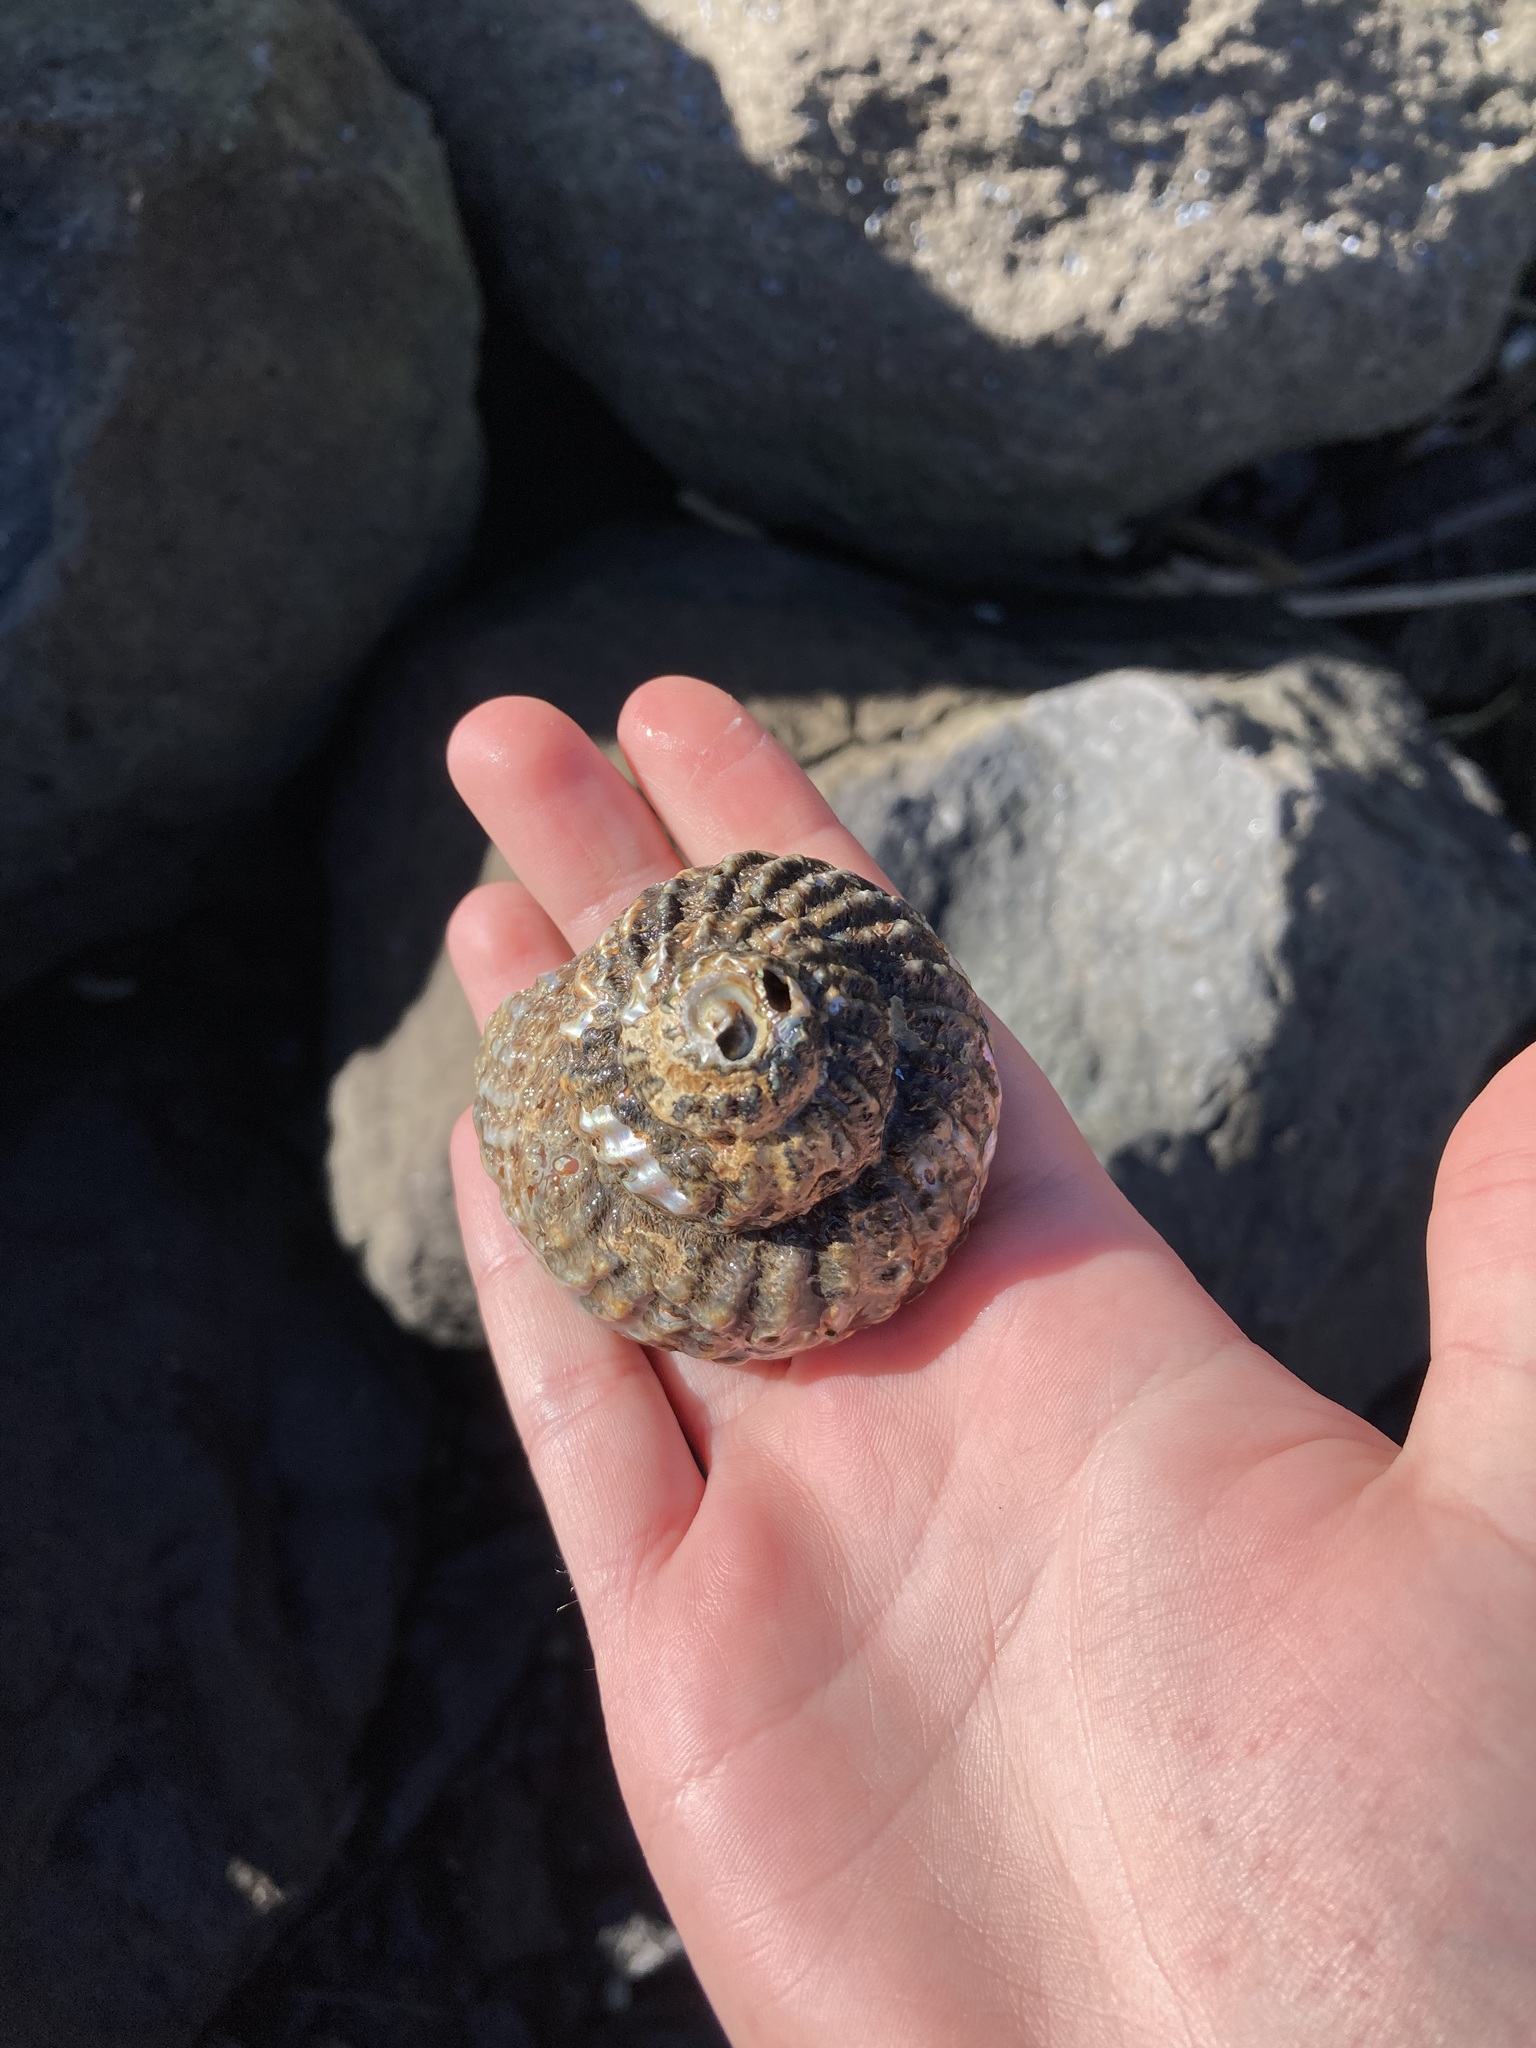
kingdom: Animalia
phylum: Mollusca
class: Gastropoda
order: Trochida
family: Turbinidae
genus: Cookia
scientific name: Cookia sulcata
